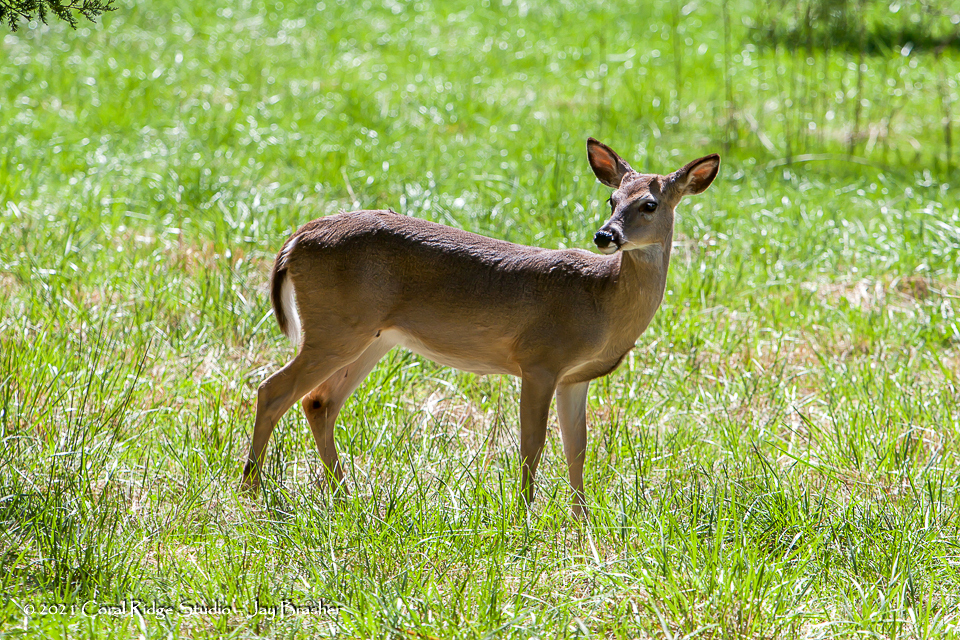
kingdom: Animalia
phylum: Chordata
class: Mammalia
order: Artiodactyla
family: Cervidae
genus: Odocoileus
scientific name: Odocoileus virginianus
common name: White-tailed deer
